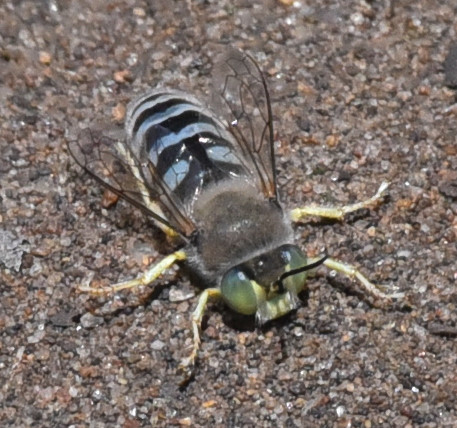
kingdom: Animalia
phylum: Arthropoda
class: Insecta
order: Hymenoptera
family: Crabronidae
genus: Bembix
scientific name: Bembix americana
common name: American sand wasp
